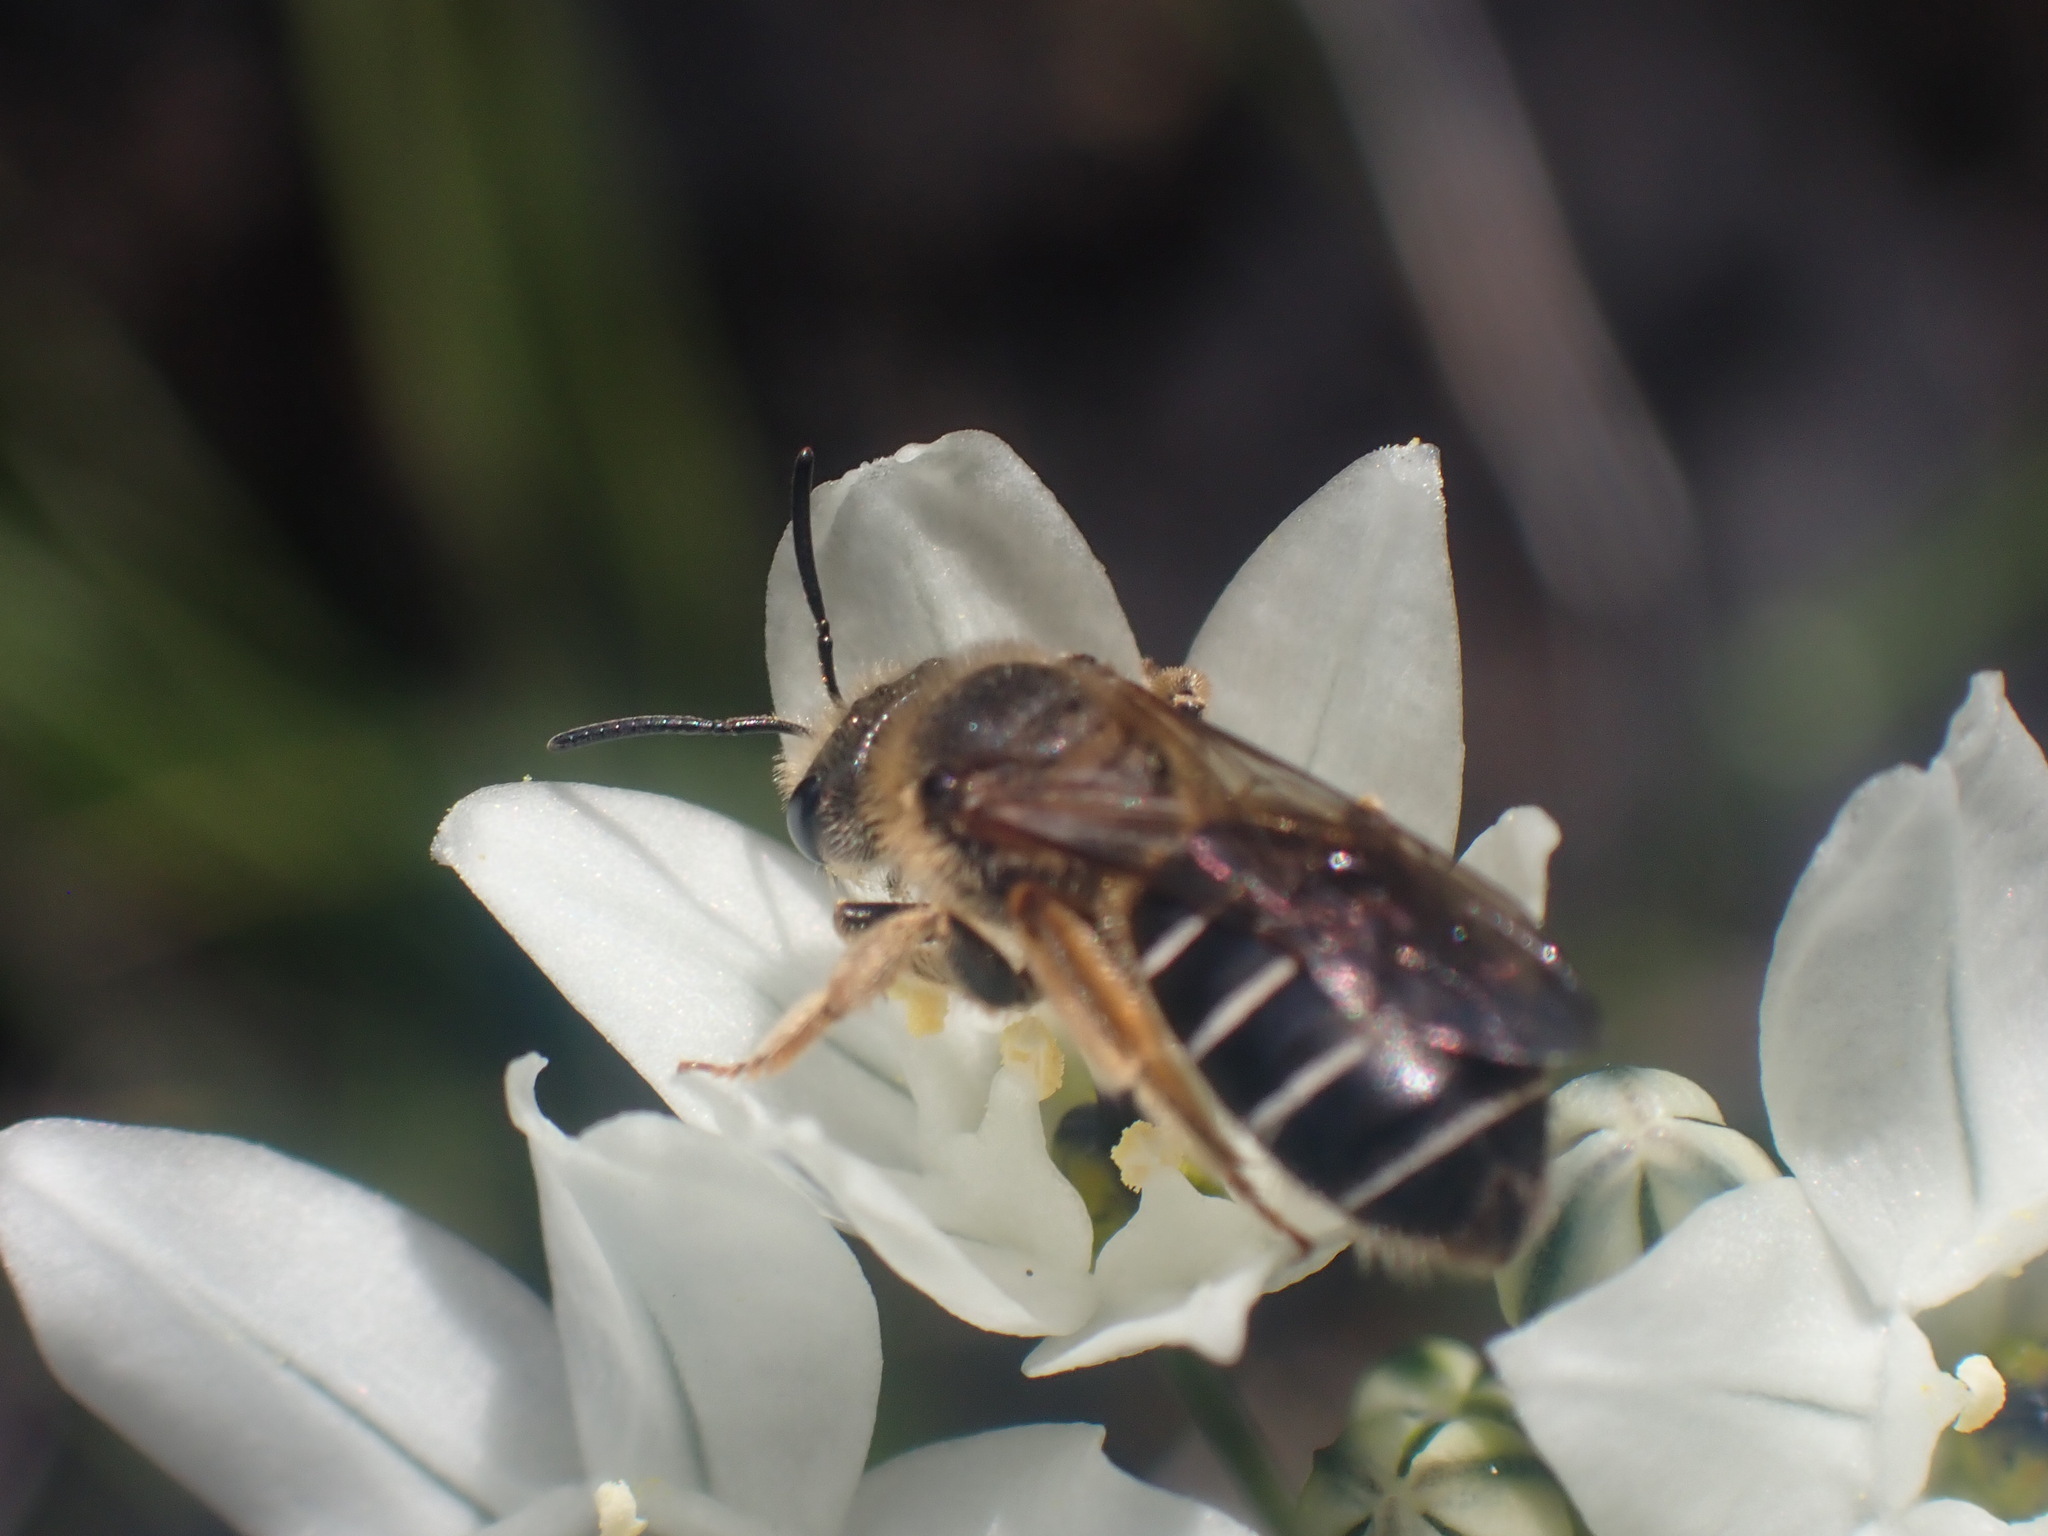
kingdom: Animalia
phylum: Arthropoda
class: Insecta
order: Hymenoptera
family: Halictidae
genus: Halictus
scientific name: Halictus rubicundus
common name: Orange-legged furrow bee
